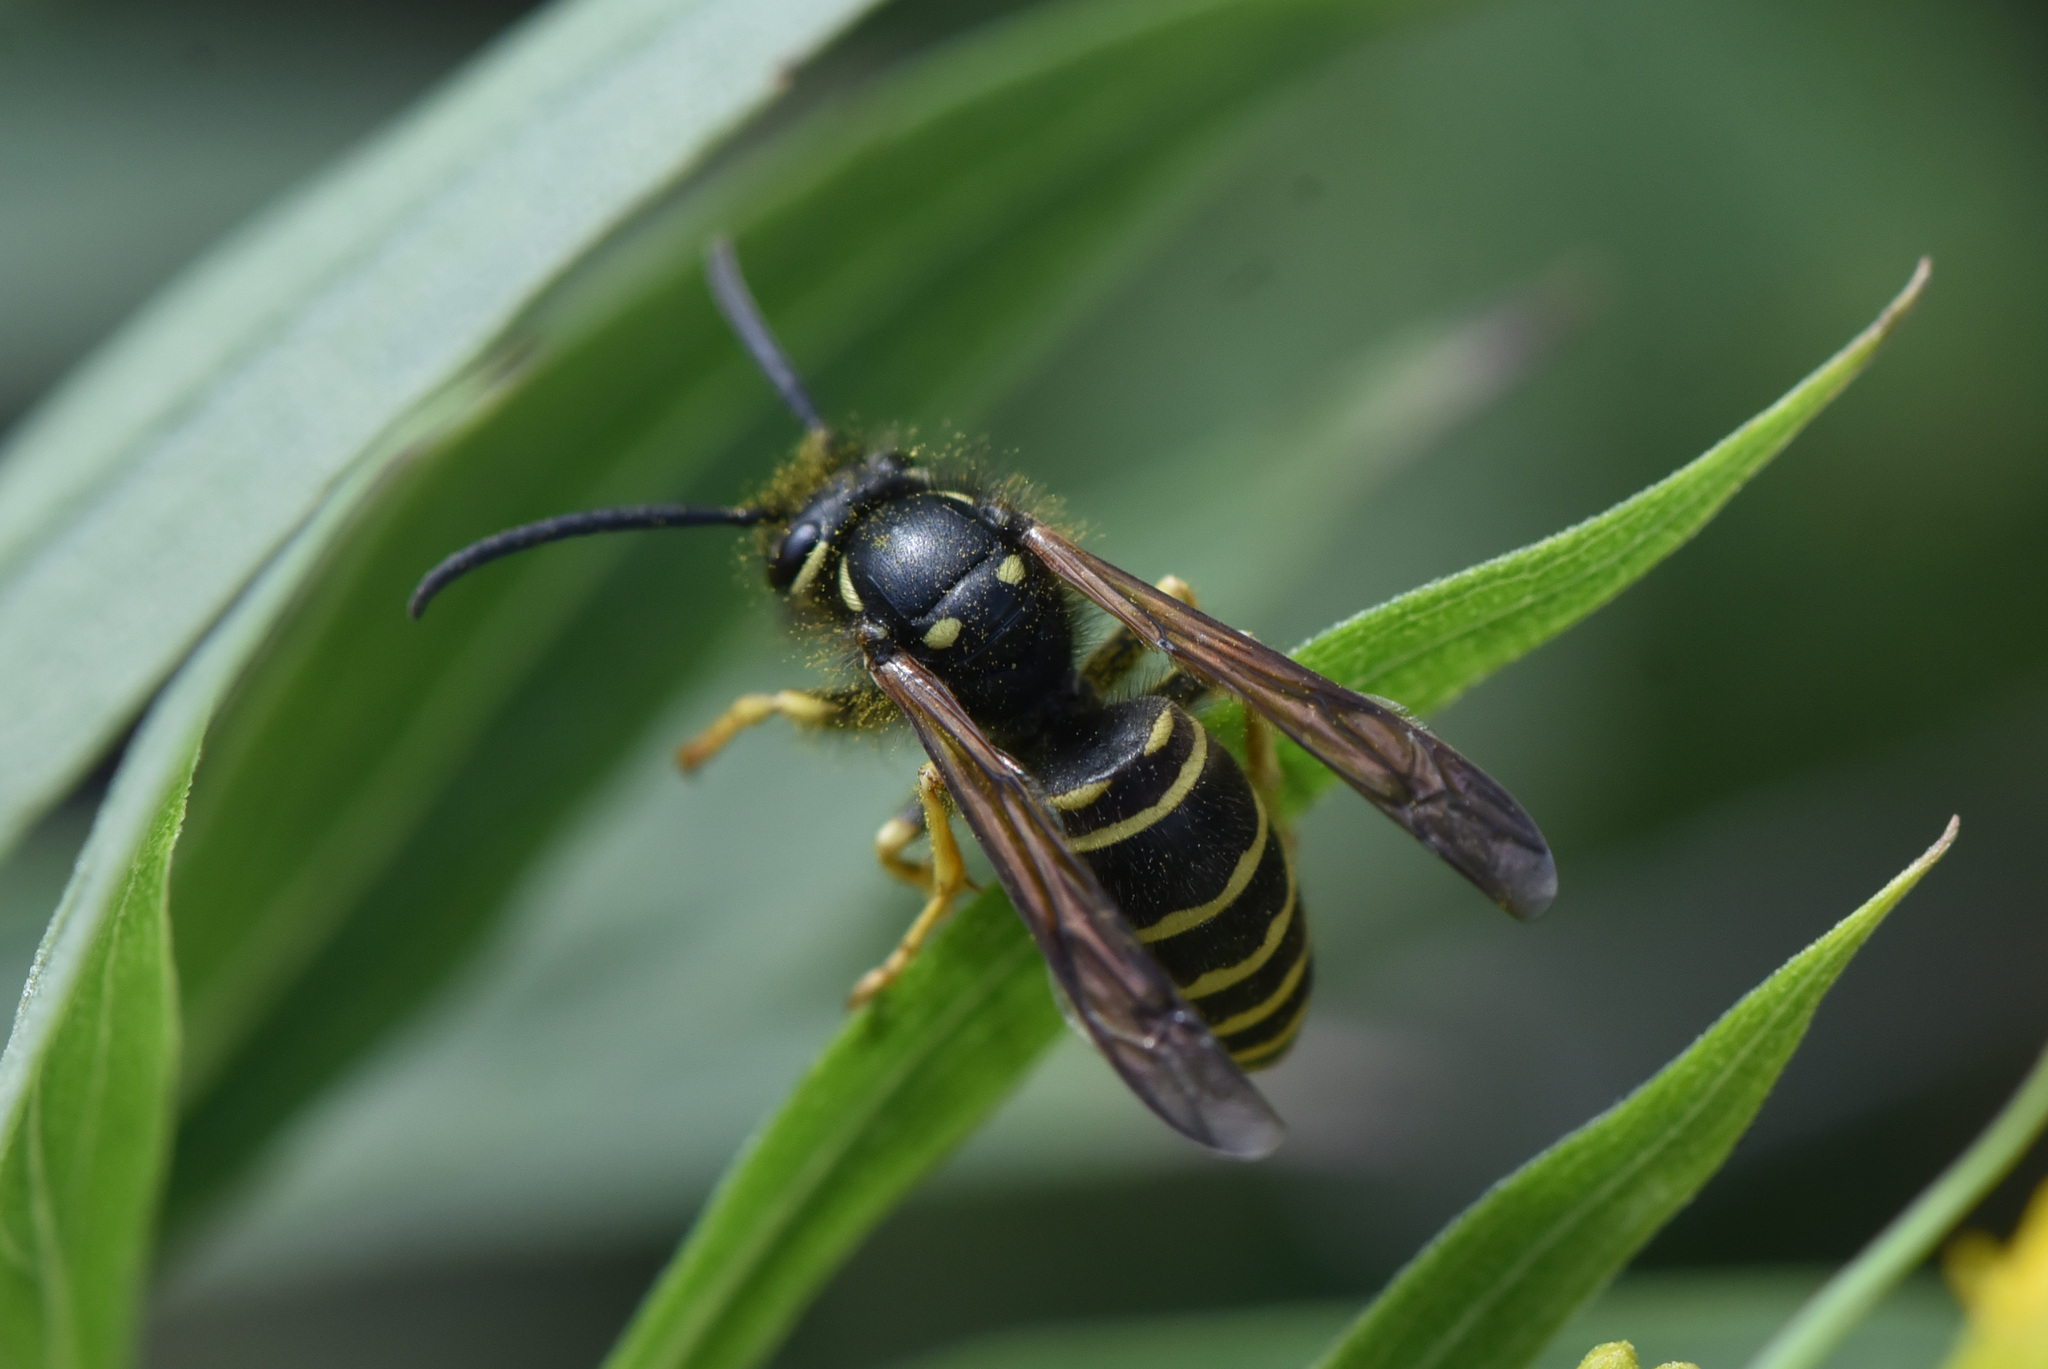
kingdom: Animalia
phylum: Arthropoda
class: Insecta
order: Hymenoptera
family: Vespidae
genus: Vespula
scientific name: Vespula acadica
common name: Forest yellowjacket
